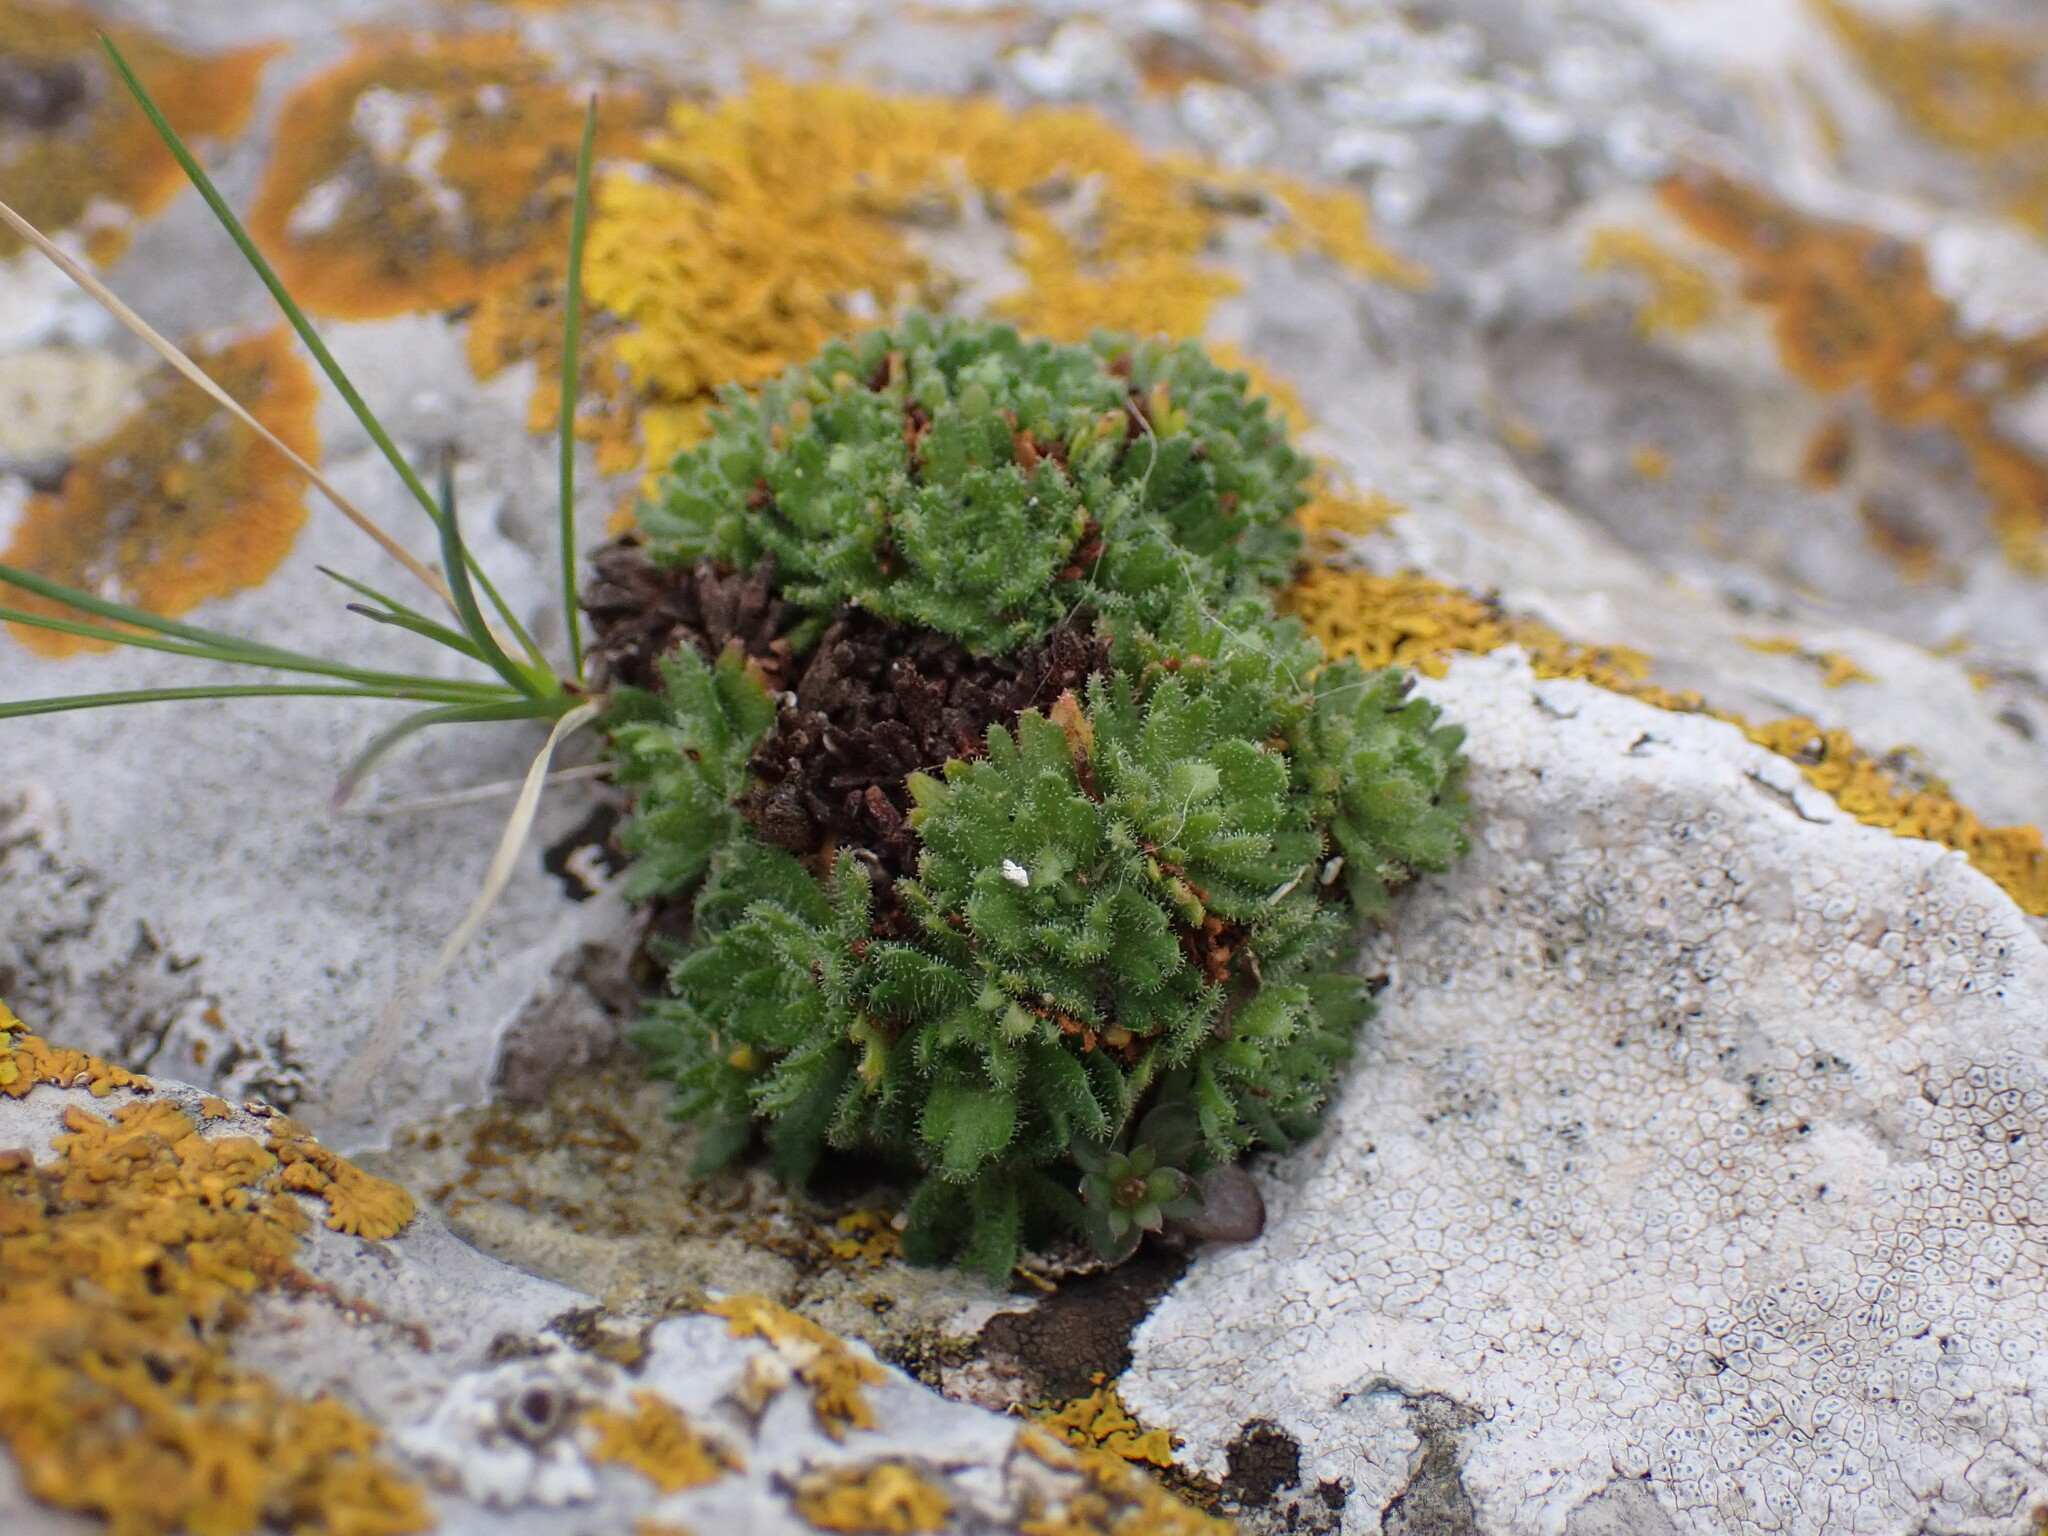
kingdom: Plantae
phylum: Tracheophyta
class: Magnoliopsida
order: Saxifragales
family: Saxifragaceae
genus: Saxifraga
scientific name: Saxifraga cebennensis
